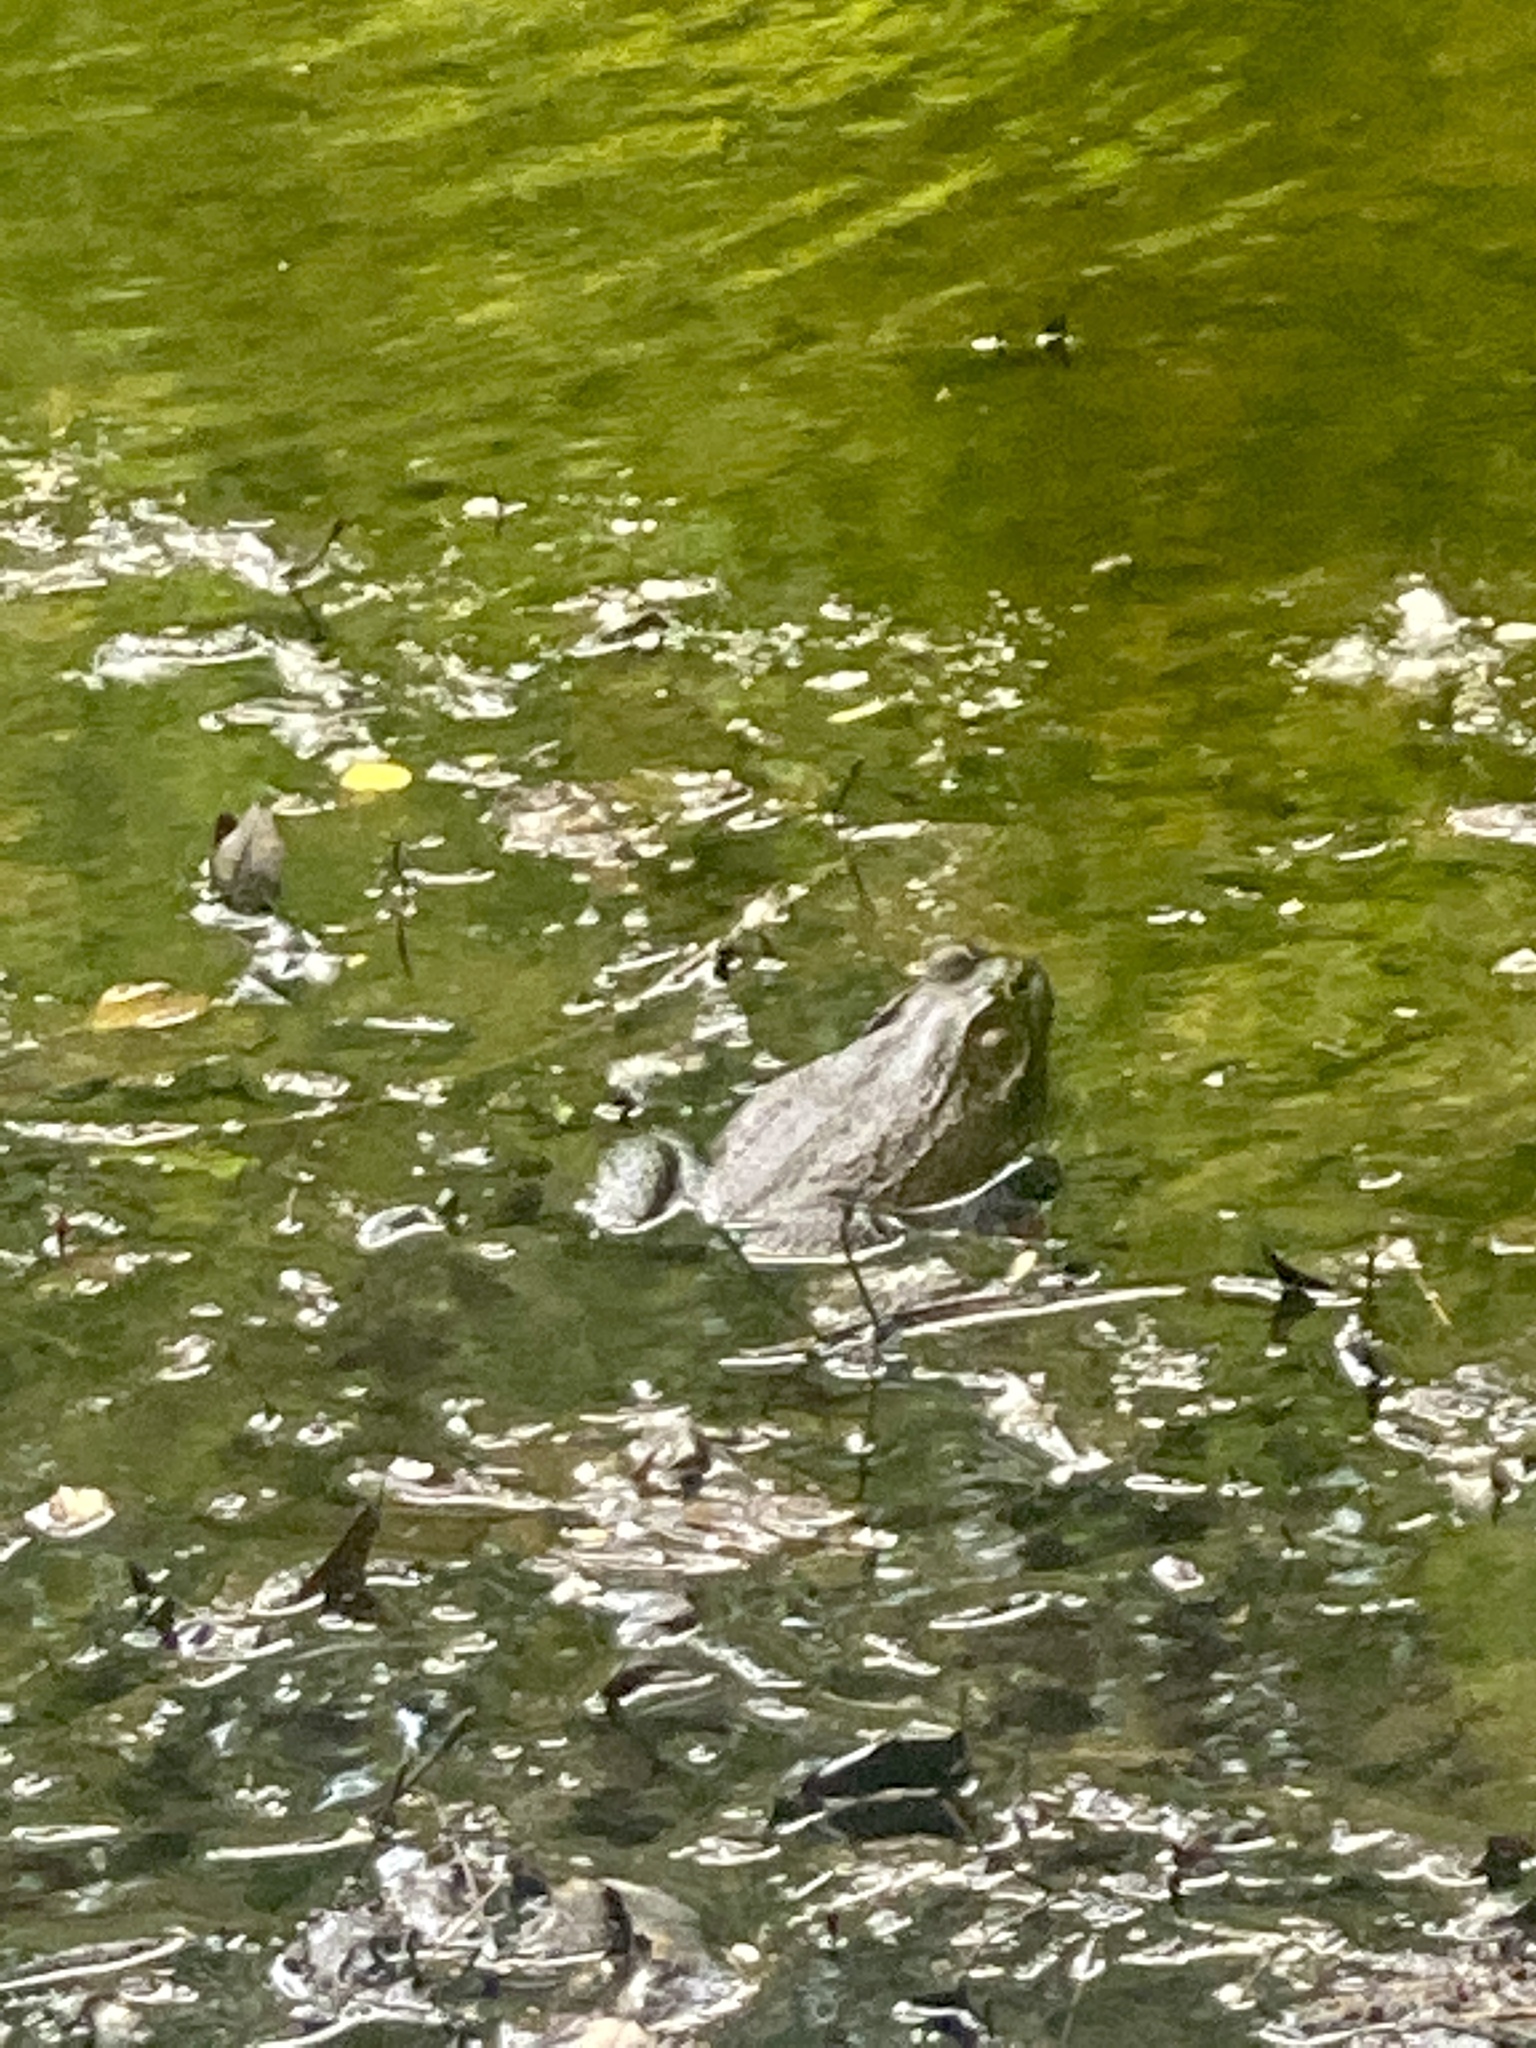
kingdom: Animalia
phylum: Chordata
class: Amphibia
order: Anura
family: Ranidae
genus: Lithobates
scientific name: Lithobates catesbeianus
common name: American bullfrog
